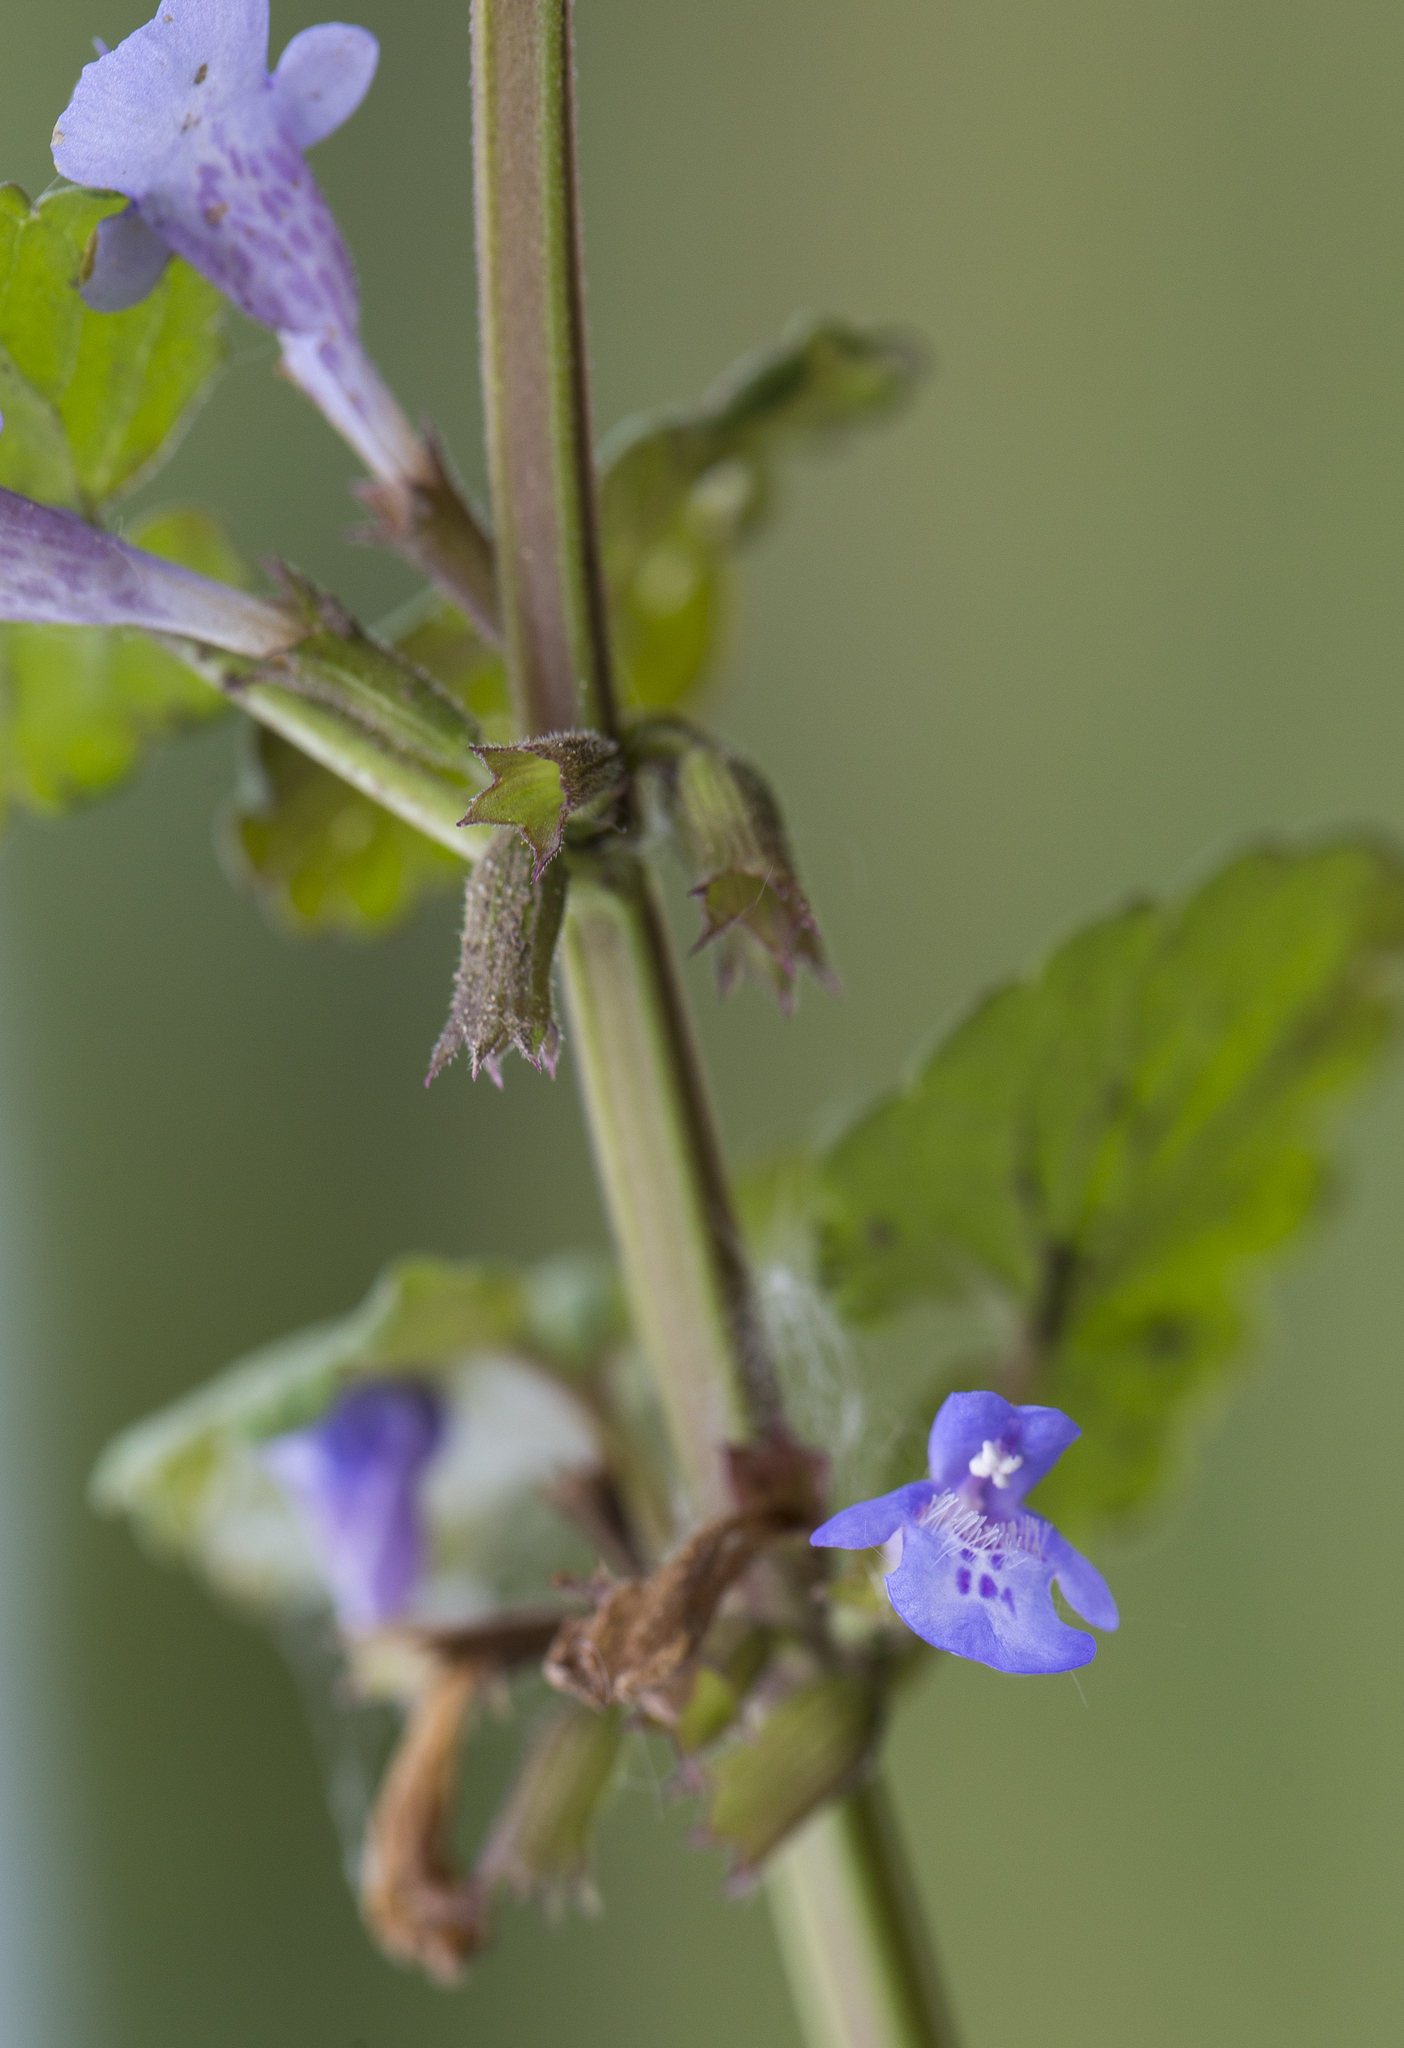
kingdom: Plantae
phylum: Tracheophyta
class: Magnoliopsida
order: Lamiales
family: Lamiaceae
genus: Glechoma
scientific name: Glechoma hederacea
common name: Ground ivy
